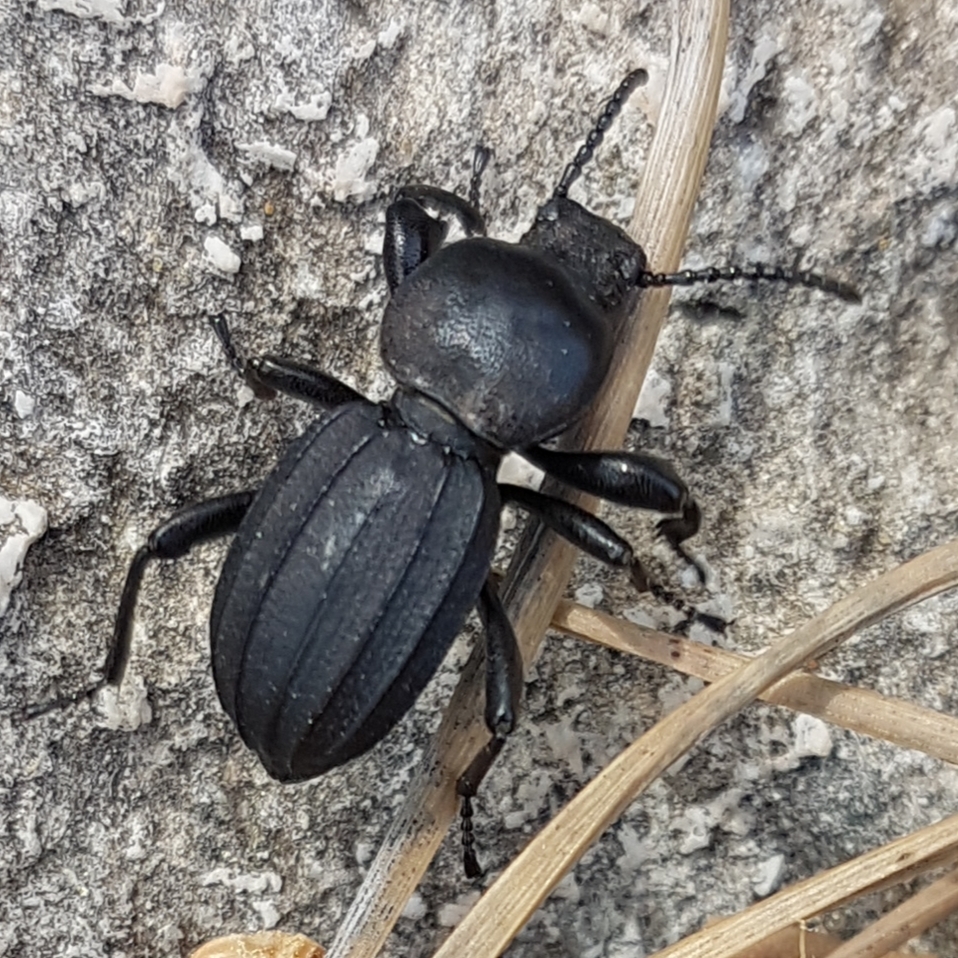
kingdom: Animalia
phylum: Arthropoda
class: Insecta
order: Coleoptera
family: Tenebrionidae
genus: Scaurus
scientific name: Scaurus striatus
